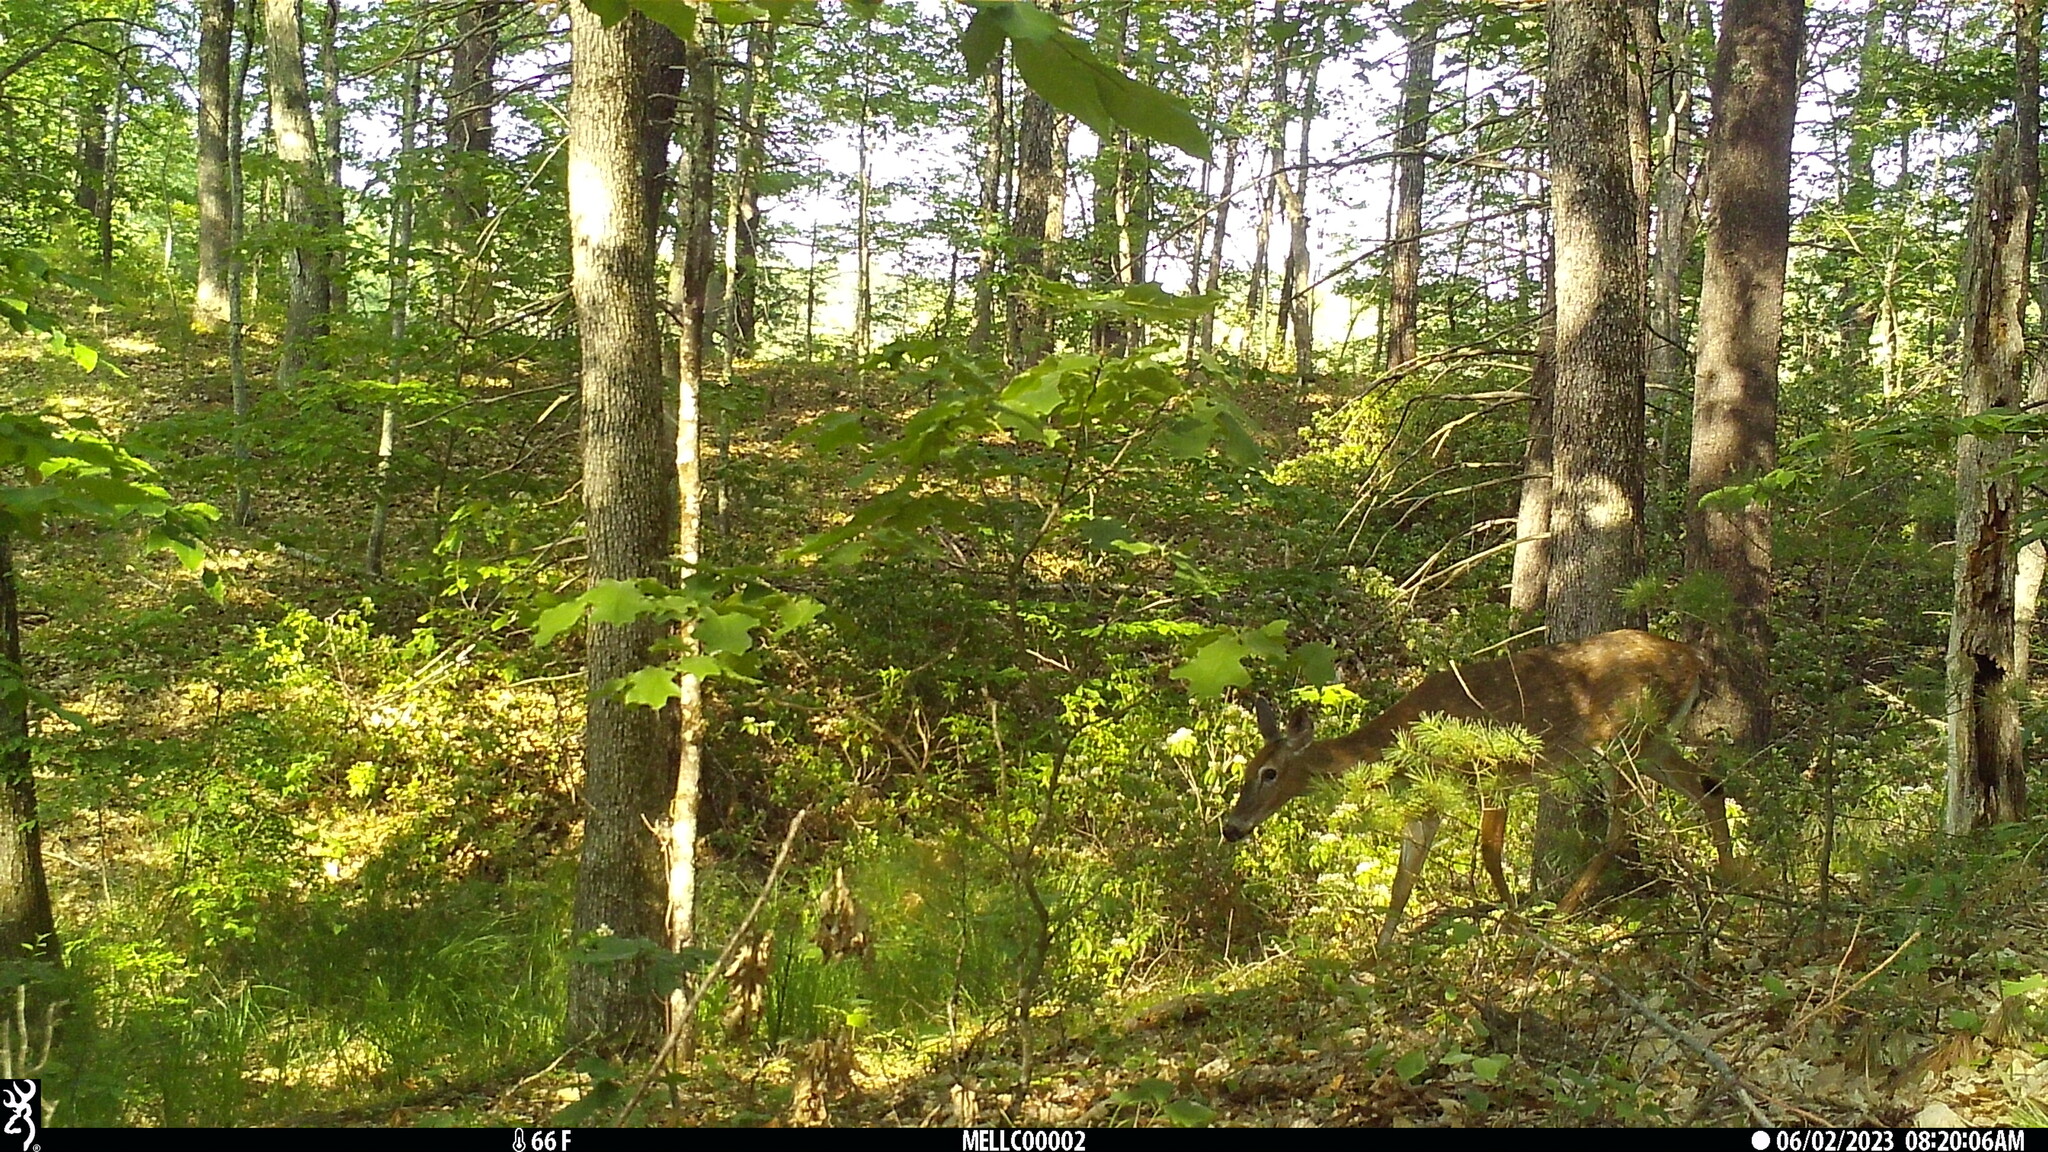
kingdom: Animalia
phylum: Chordata
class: Mammalia
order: Artiodactyla
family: Cervidae
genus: Odocoileus
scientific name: Odocoileus virginianus
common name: White-tailed deer
